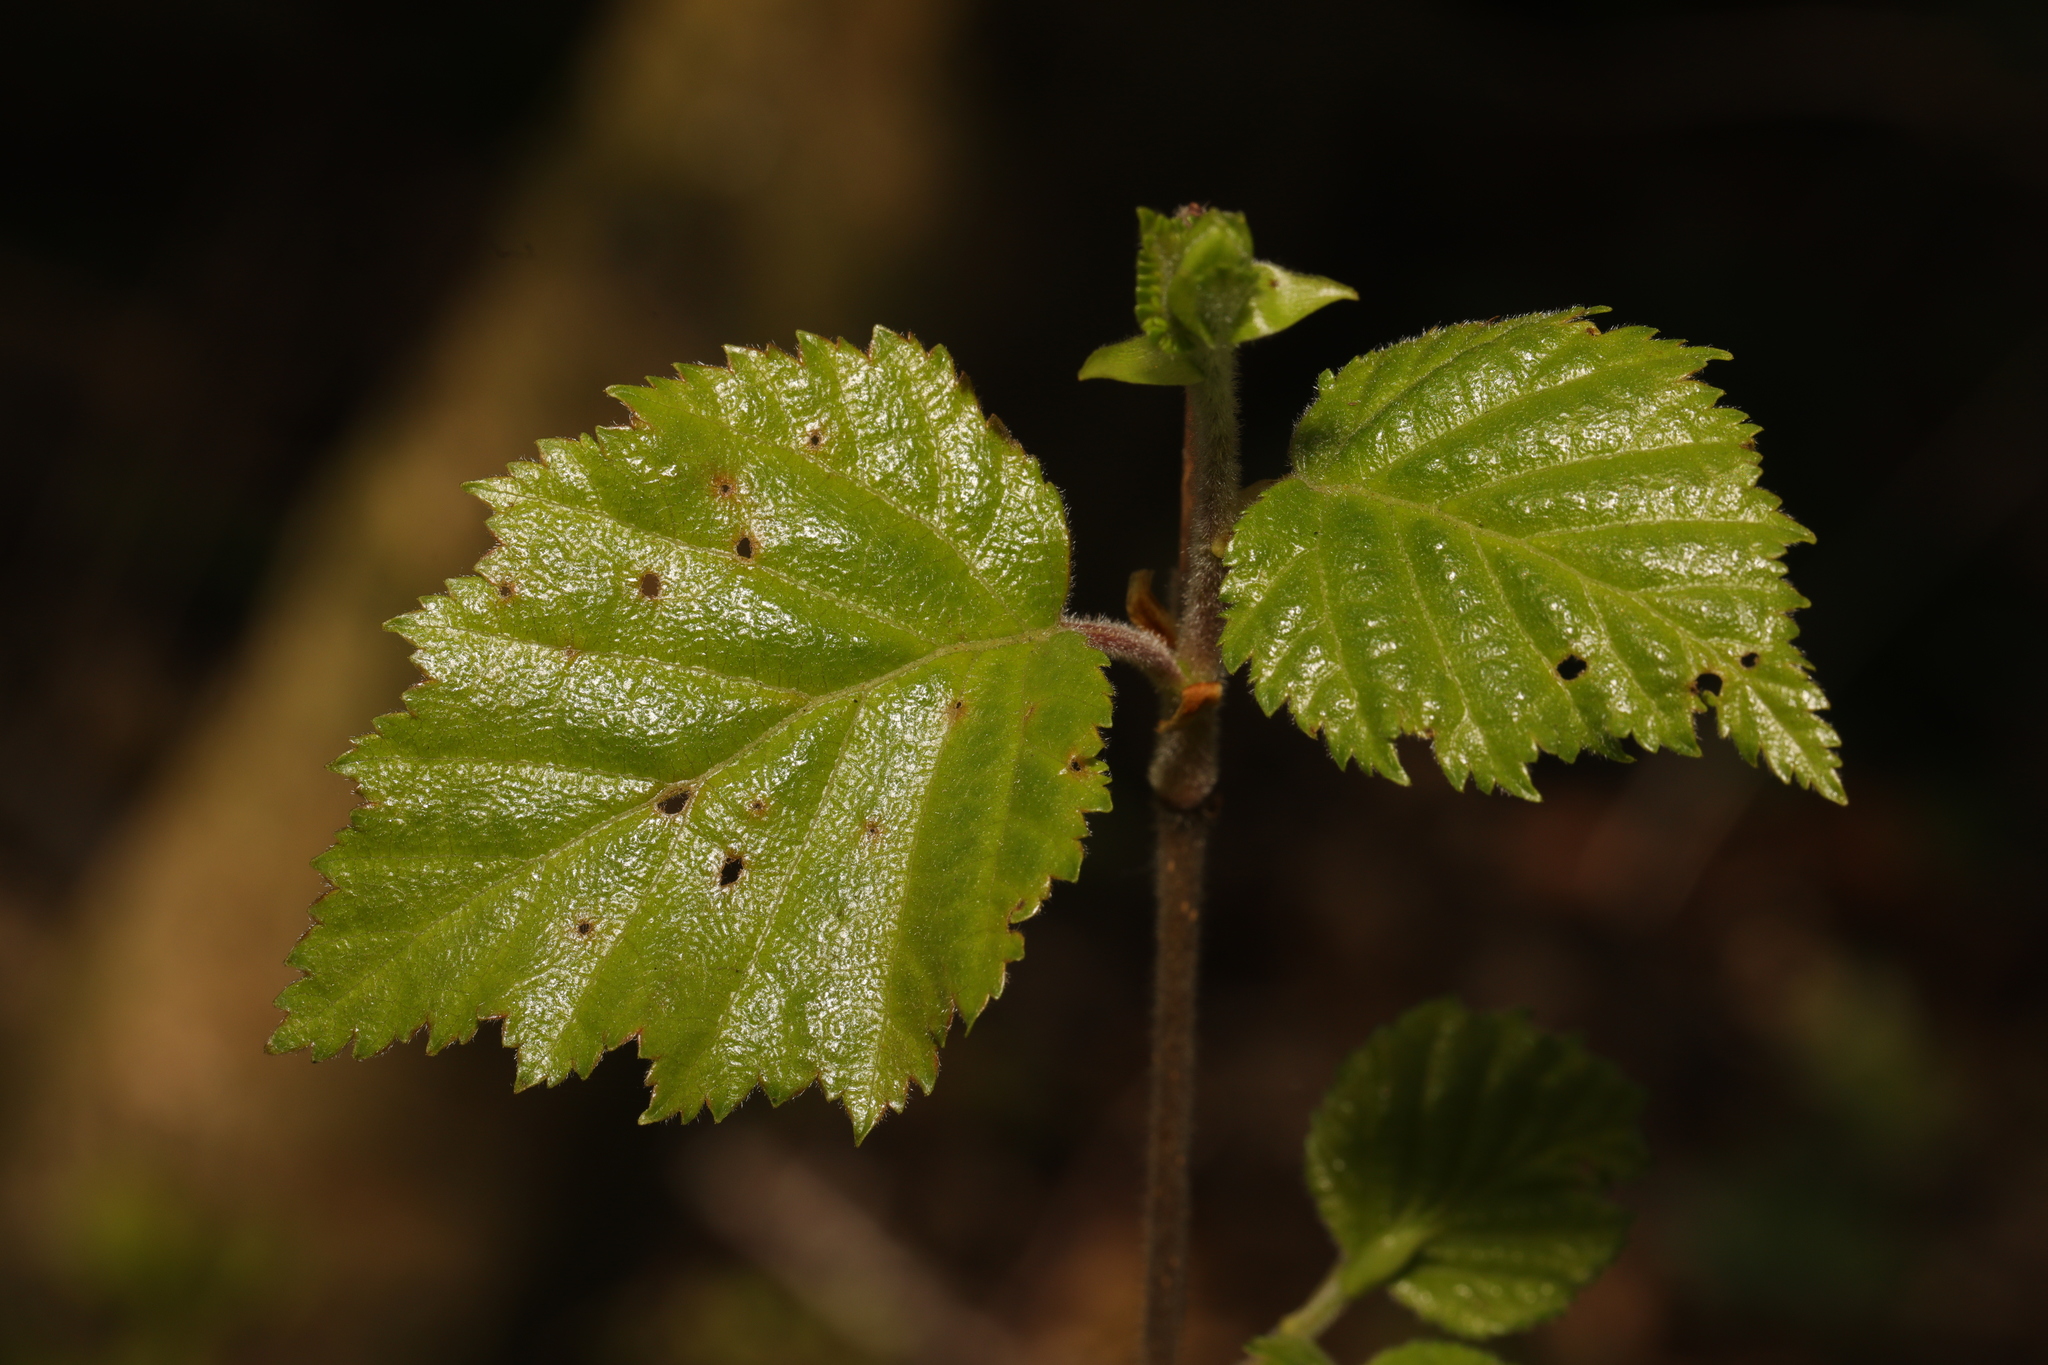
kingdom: Plantae
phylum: Tracheophyta
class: Magnoliopsida
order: Fagales
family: Betulaceae
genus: Betula
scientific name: Betula pubescens
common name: Downy birch
